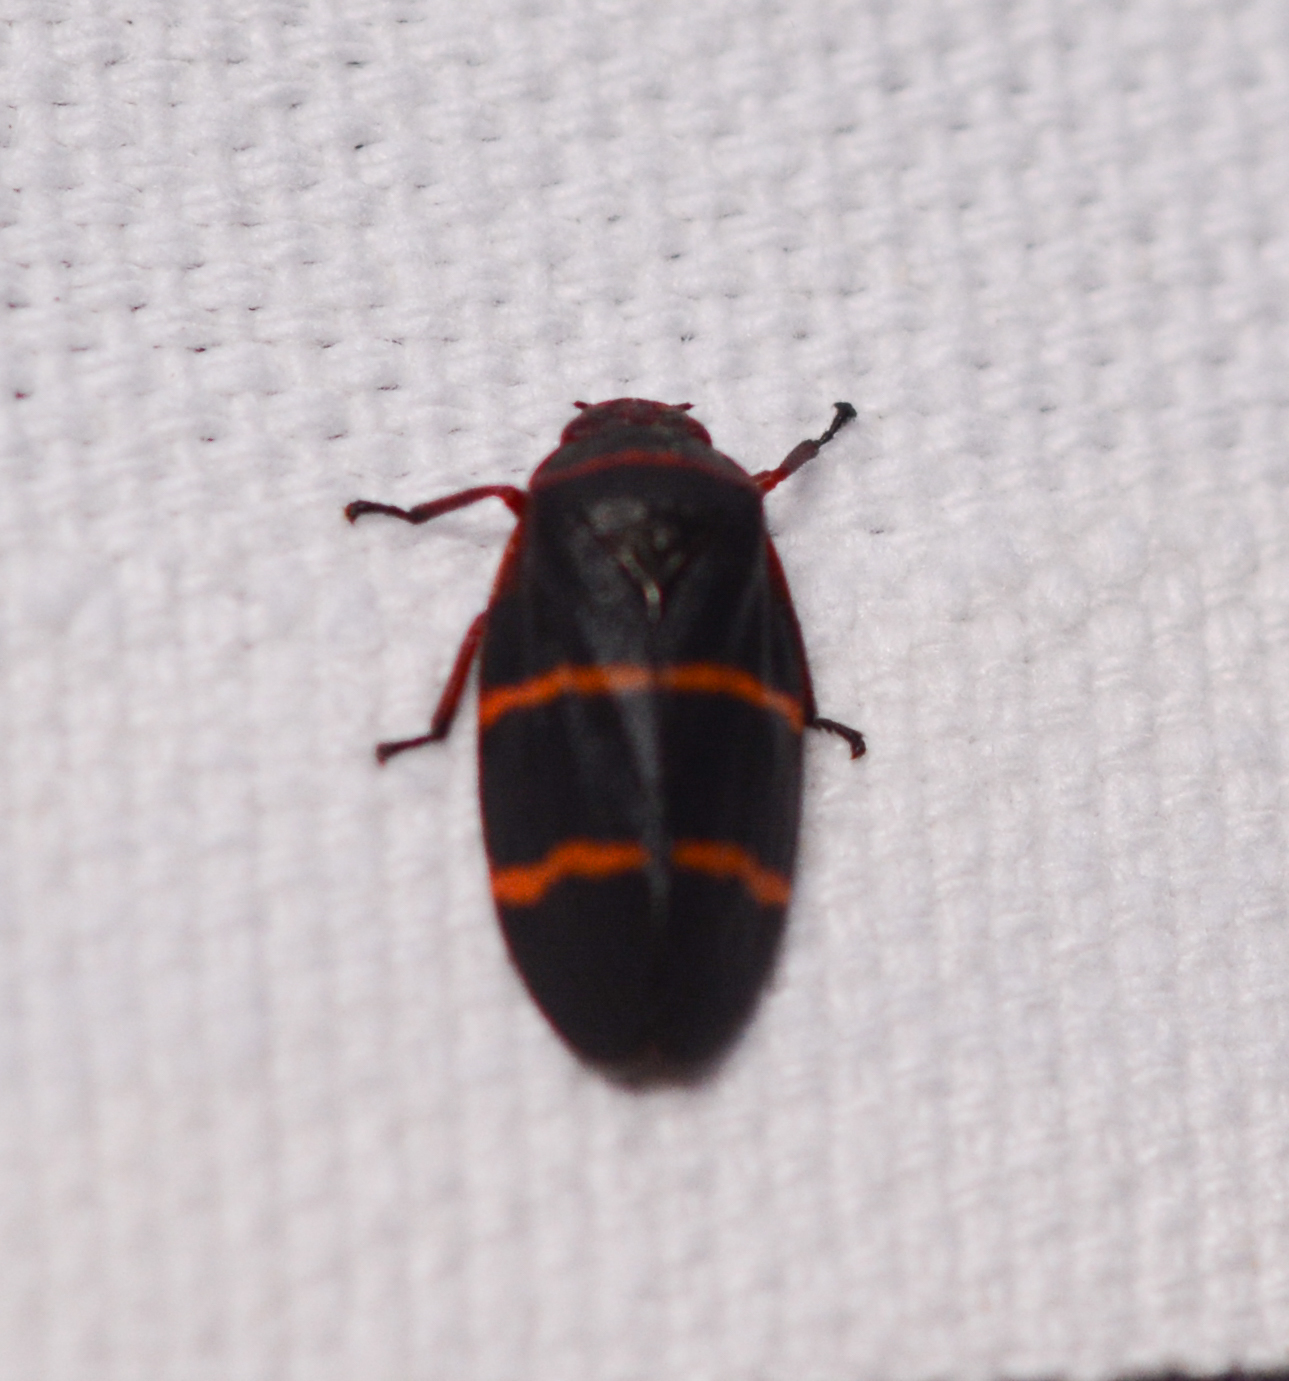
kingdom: Animalia
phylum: Arthropoda
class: Insecta
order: Hemiptera
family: Cercopidae
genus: Prosapia
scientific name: Prosapia bicincta
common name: Twolined spittlebug
